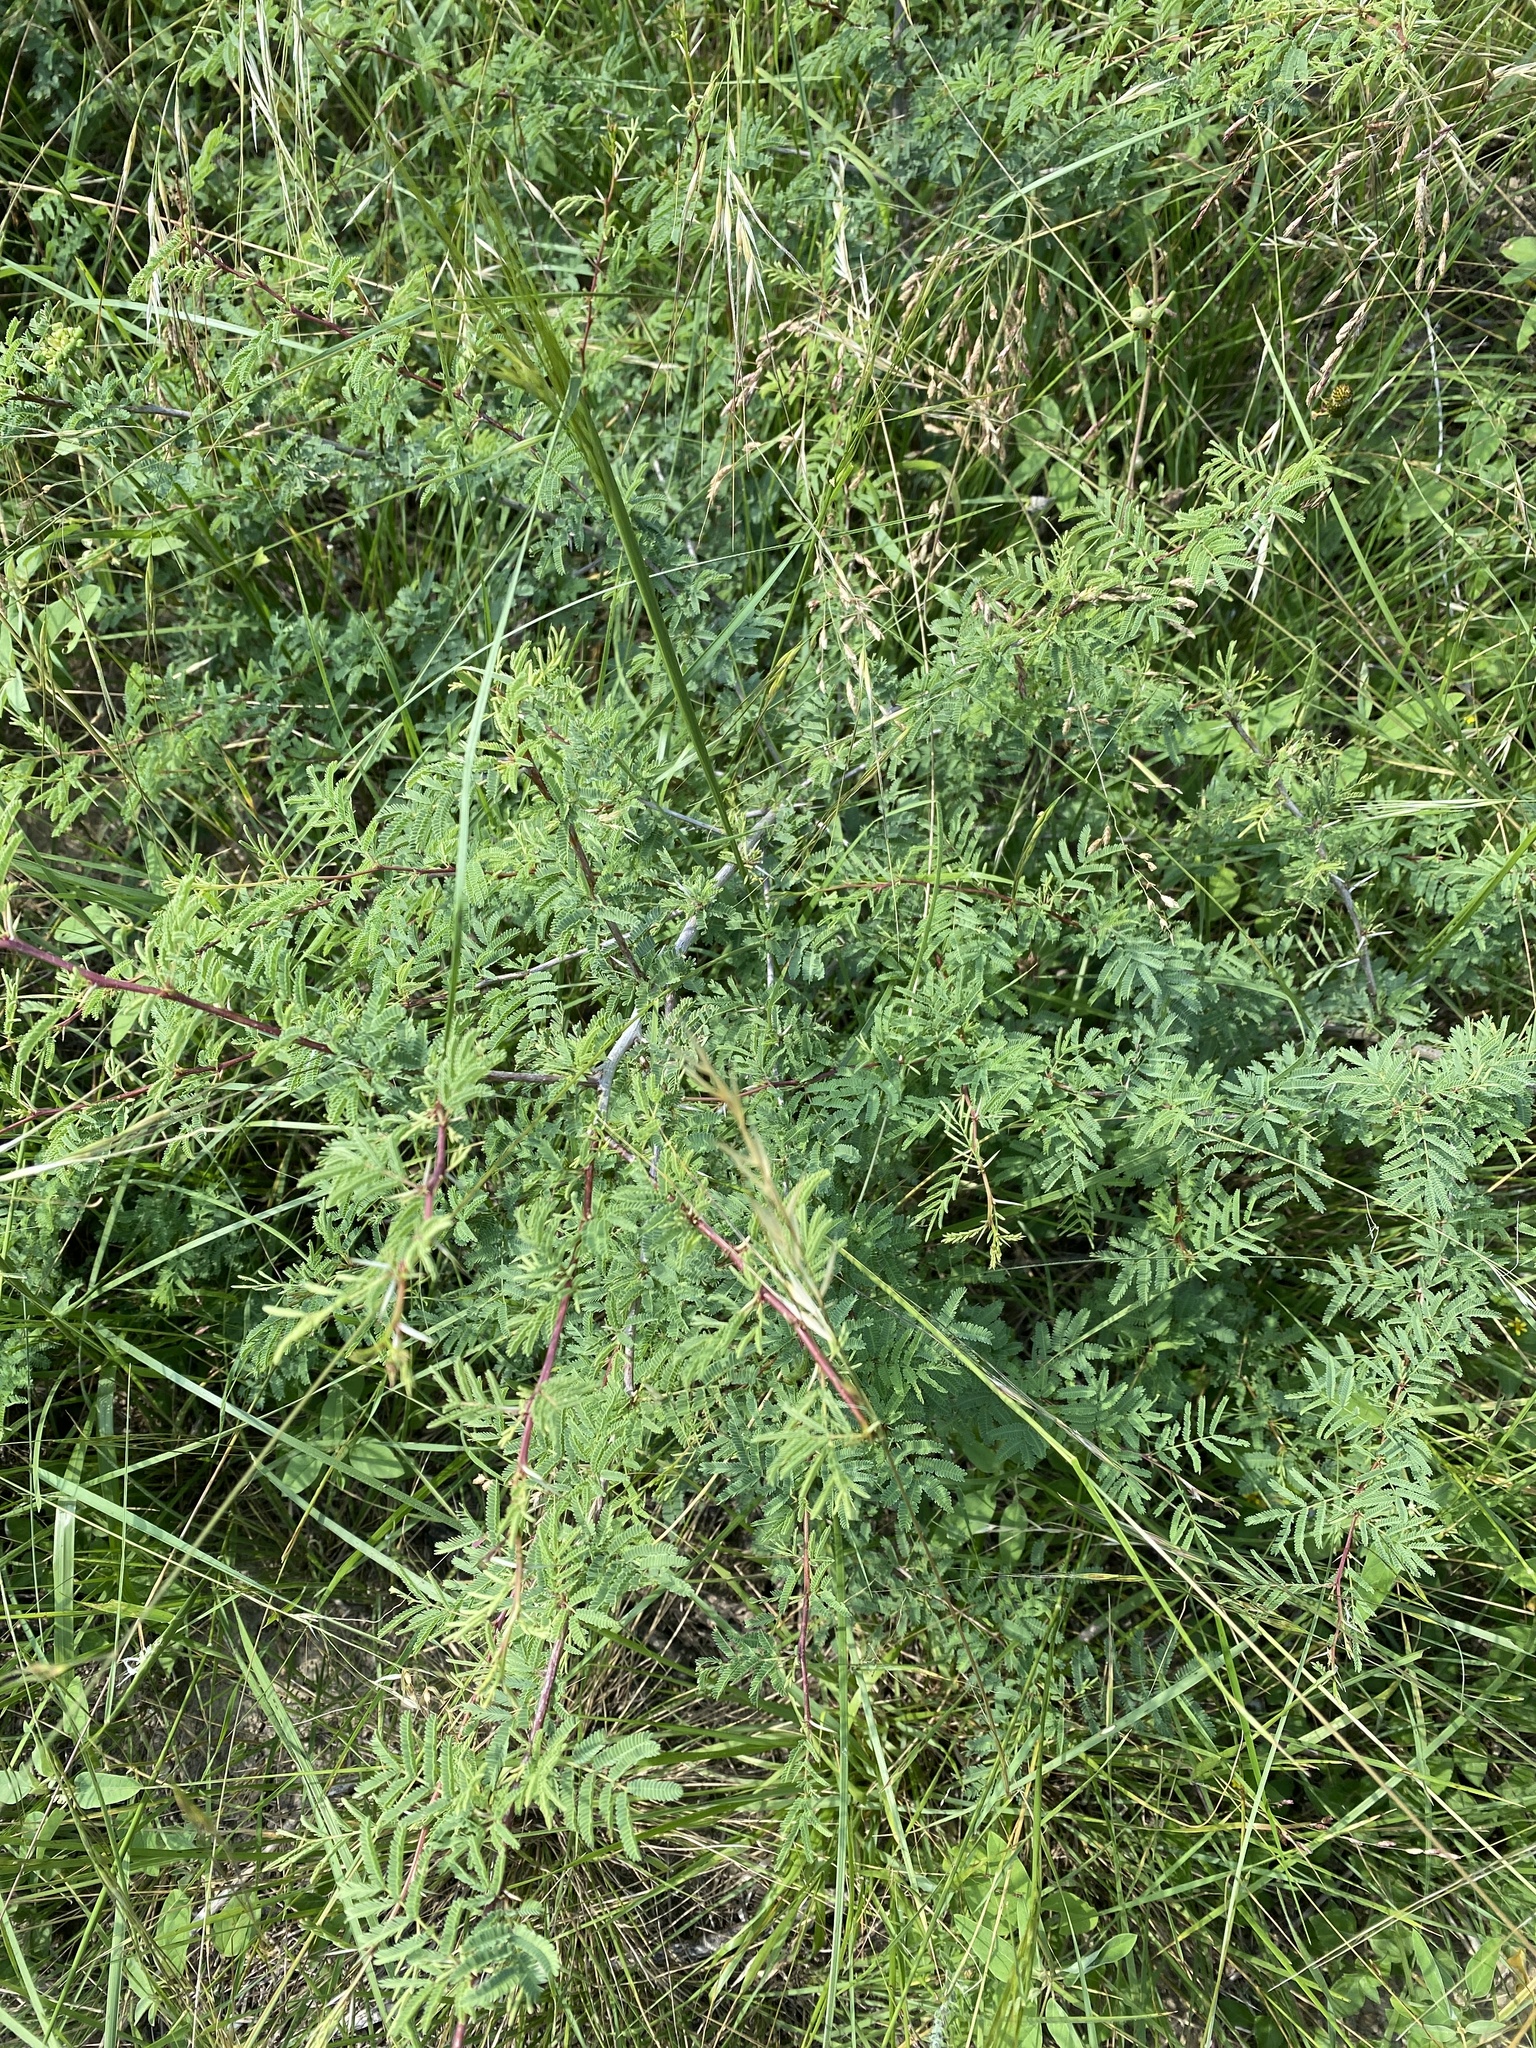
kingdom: Plantae
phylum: Tracheophyta
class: Magnoliopsida
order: Fabales
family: Fabaceae
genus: Vachellia
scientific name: Vachellia farnesiana
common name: Sweet acacia
